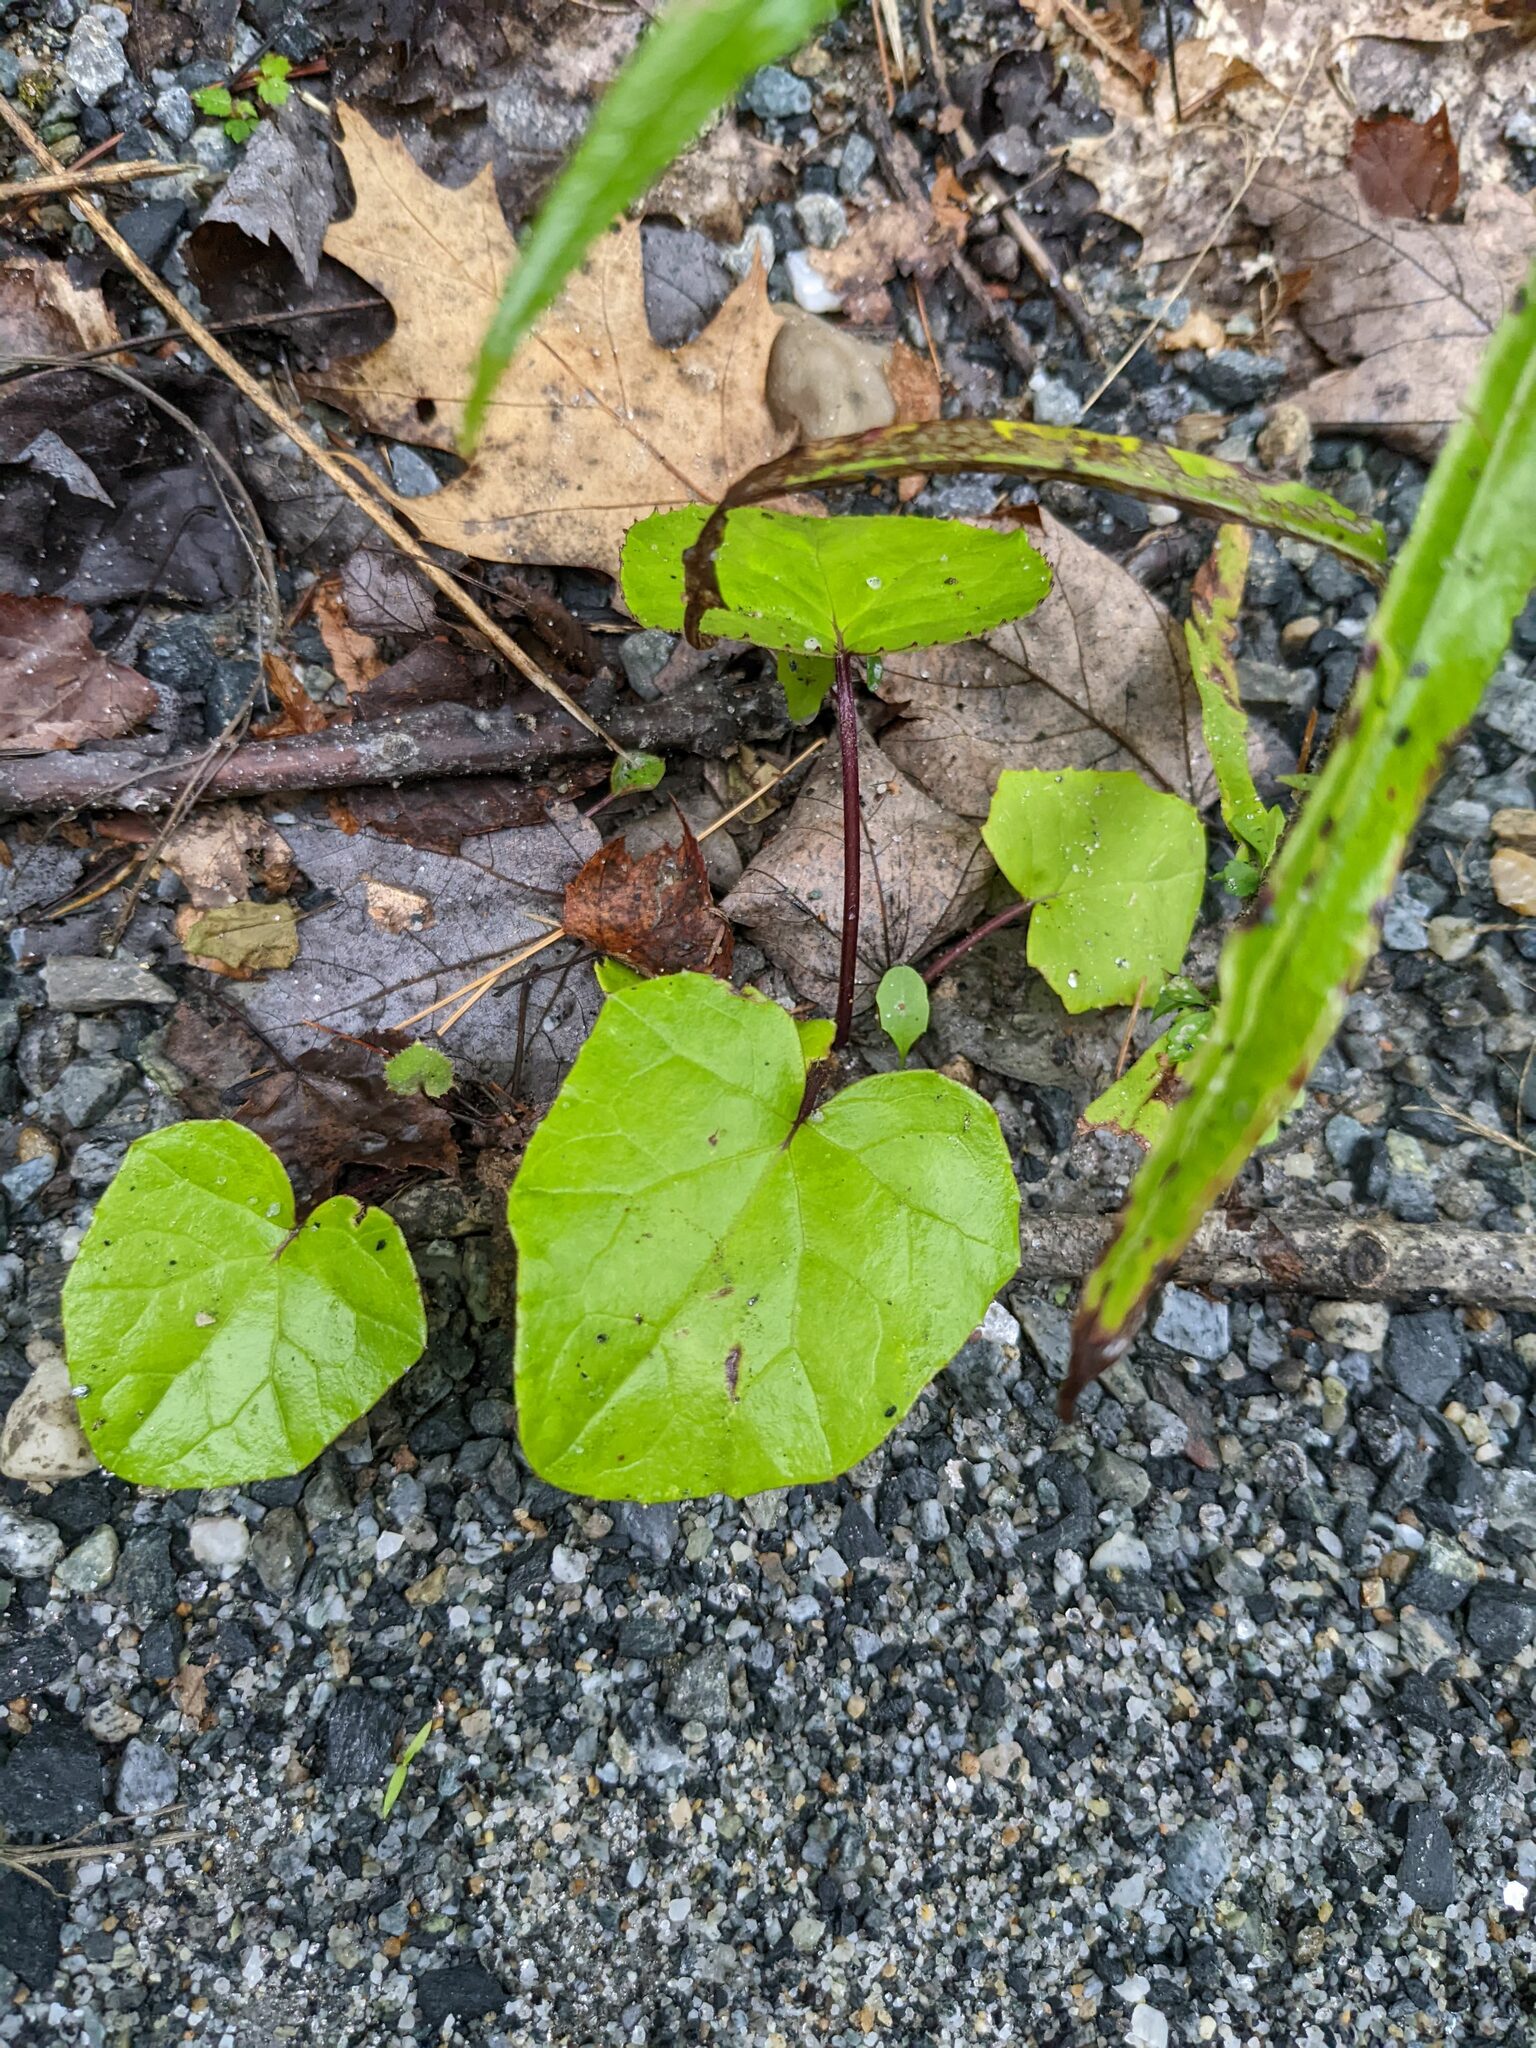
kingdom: Plantae
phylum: Tracheophyta
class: Magnoliopsida
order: Asterales
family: Asteraceae
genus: Tussilago
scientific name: Tussilago farfara
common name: Coltsfoot
